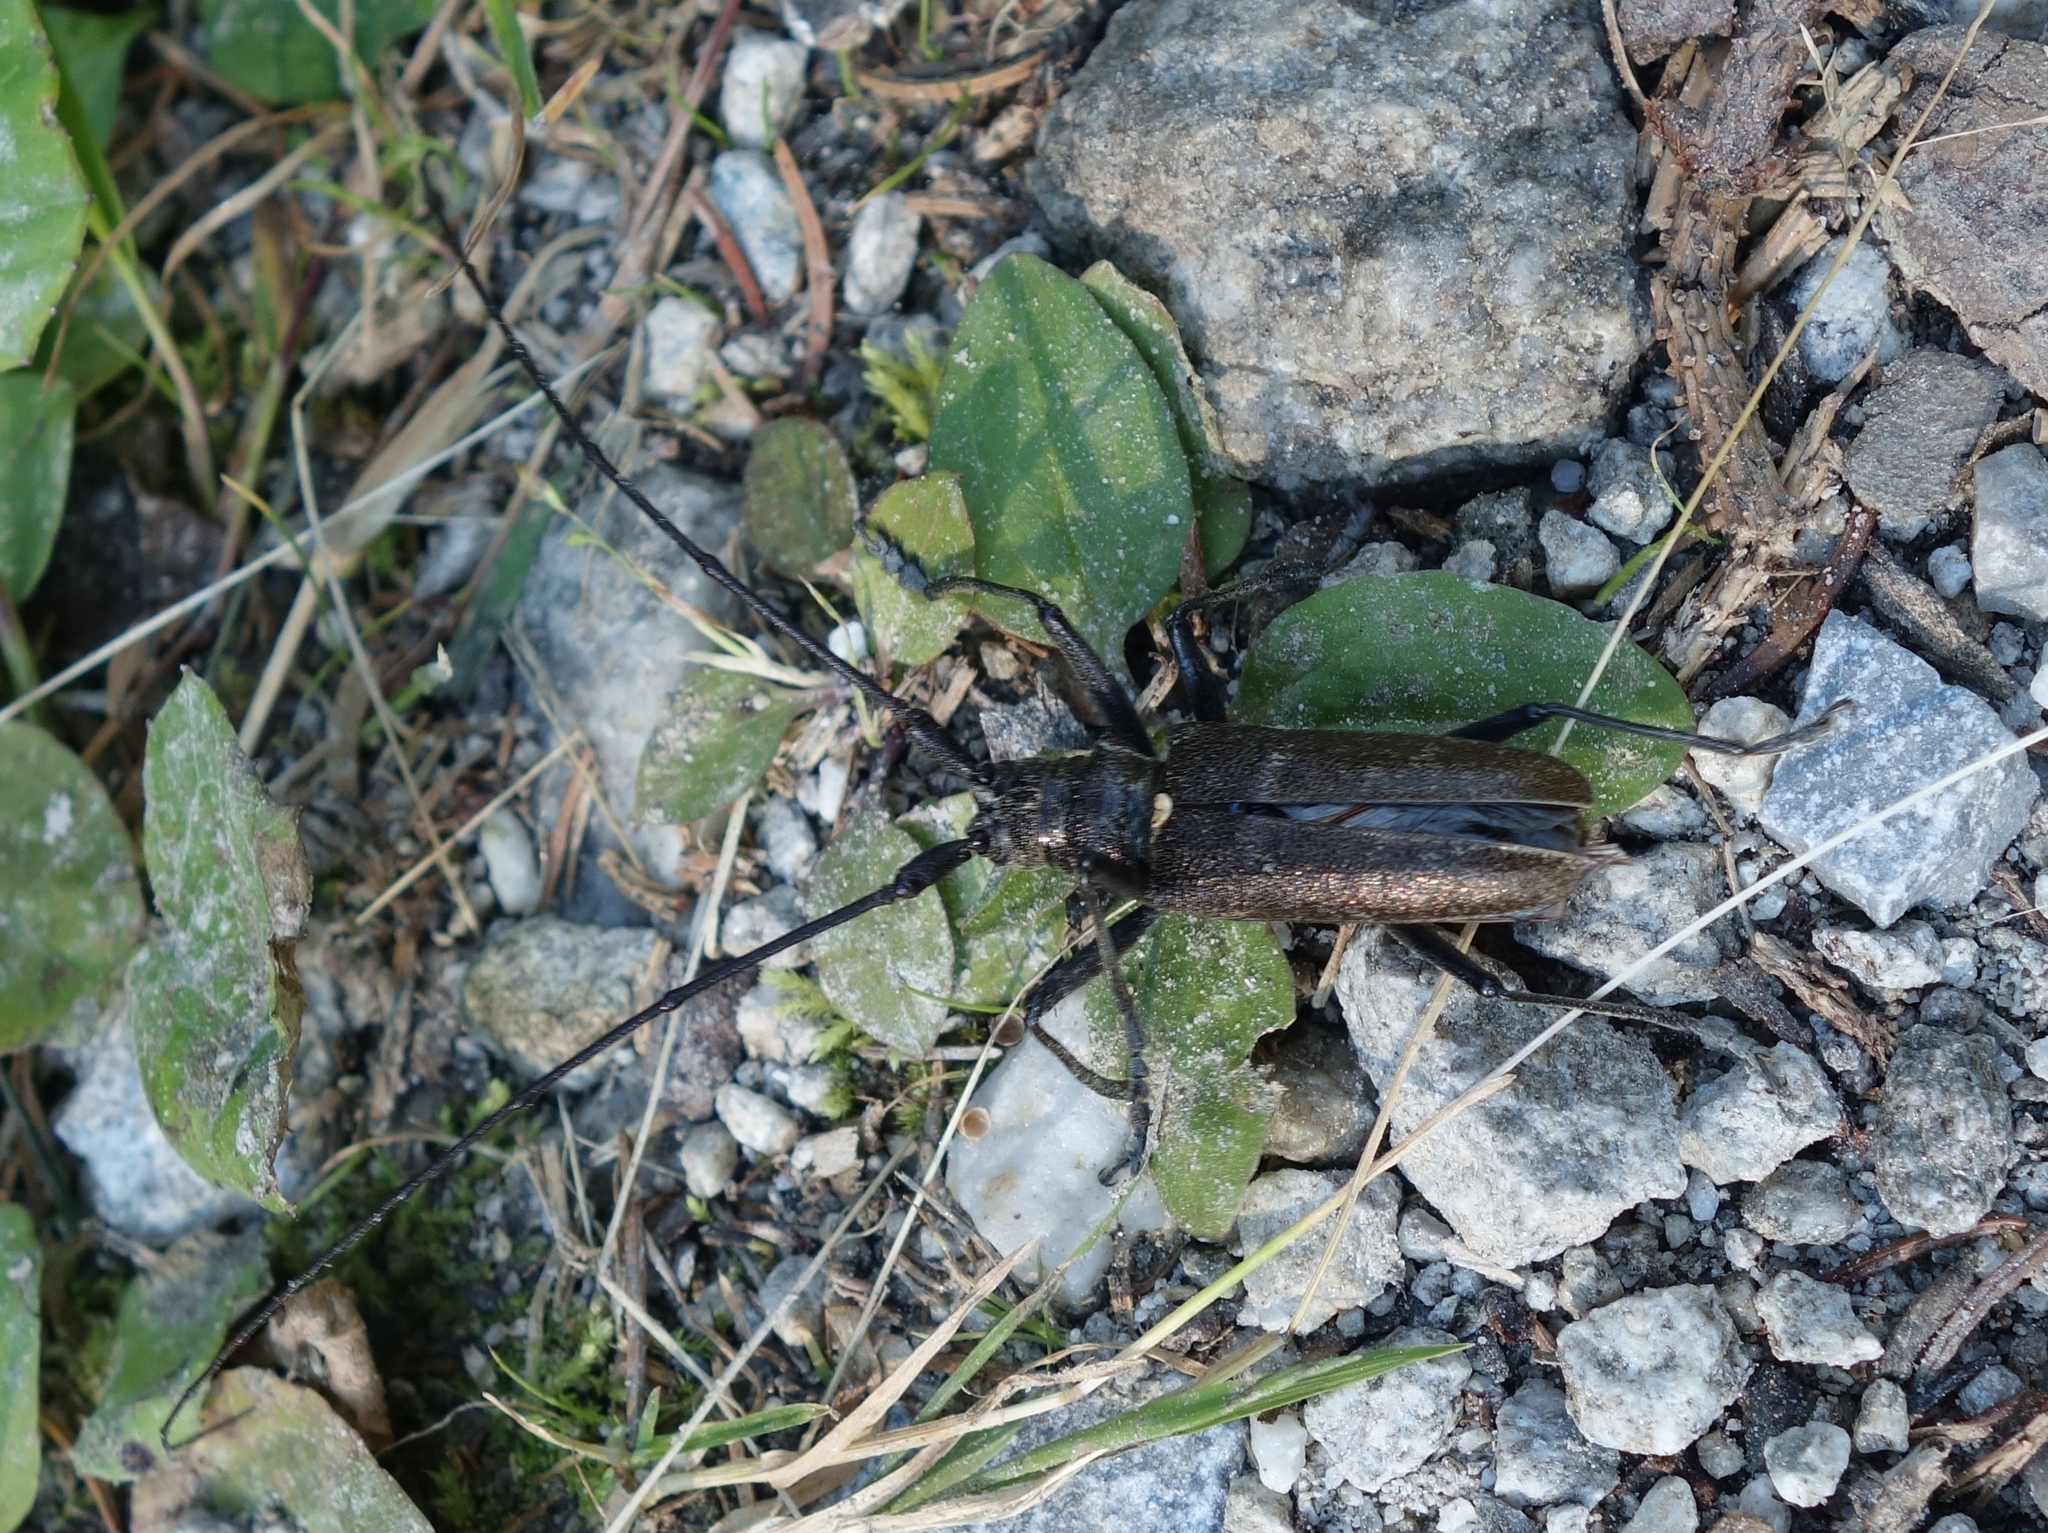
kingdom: Animalia
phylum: Arthropoda
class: Insecta
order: Coleoptera
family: Cerambycidae
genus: Monochamus
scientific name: Monochamus sartor
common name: Pine sawyer
